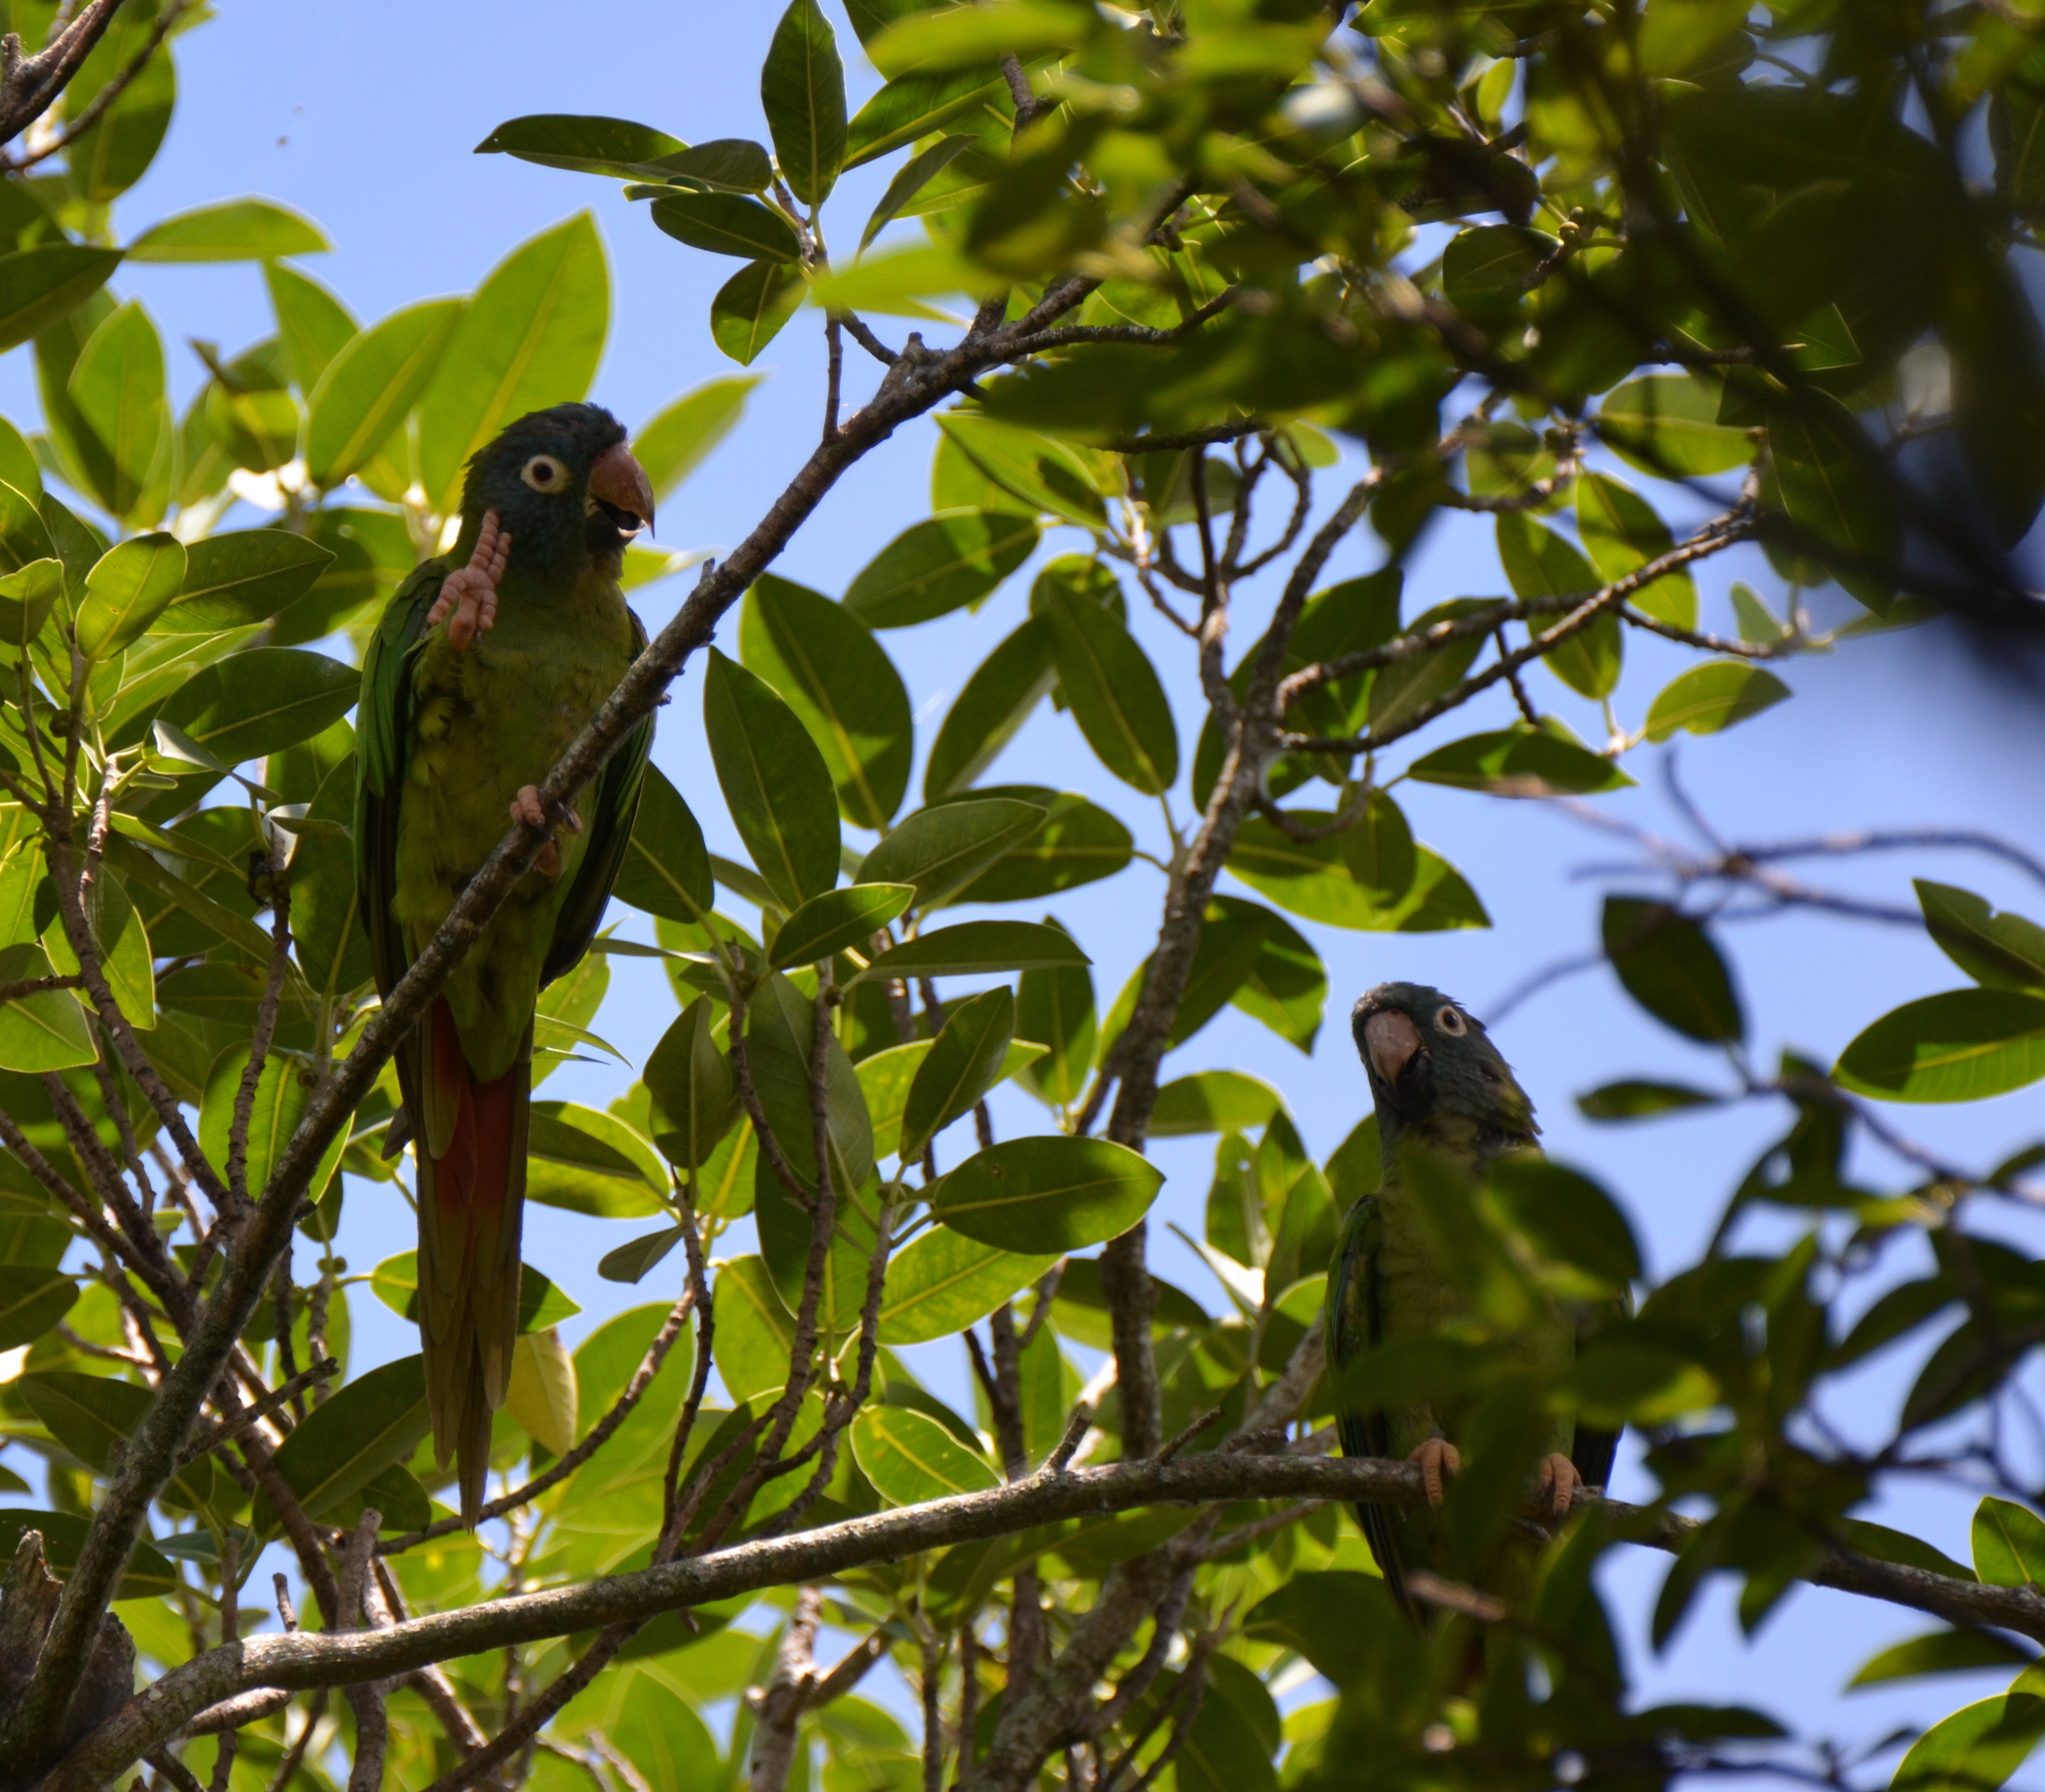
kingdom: Animalia
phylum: Chordata
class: Aves
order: Psittaciformes
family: Psittacidae
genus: Aratinga
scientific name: Aratinga acuticaudata
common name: Blue-crowned parakeet
